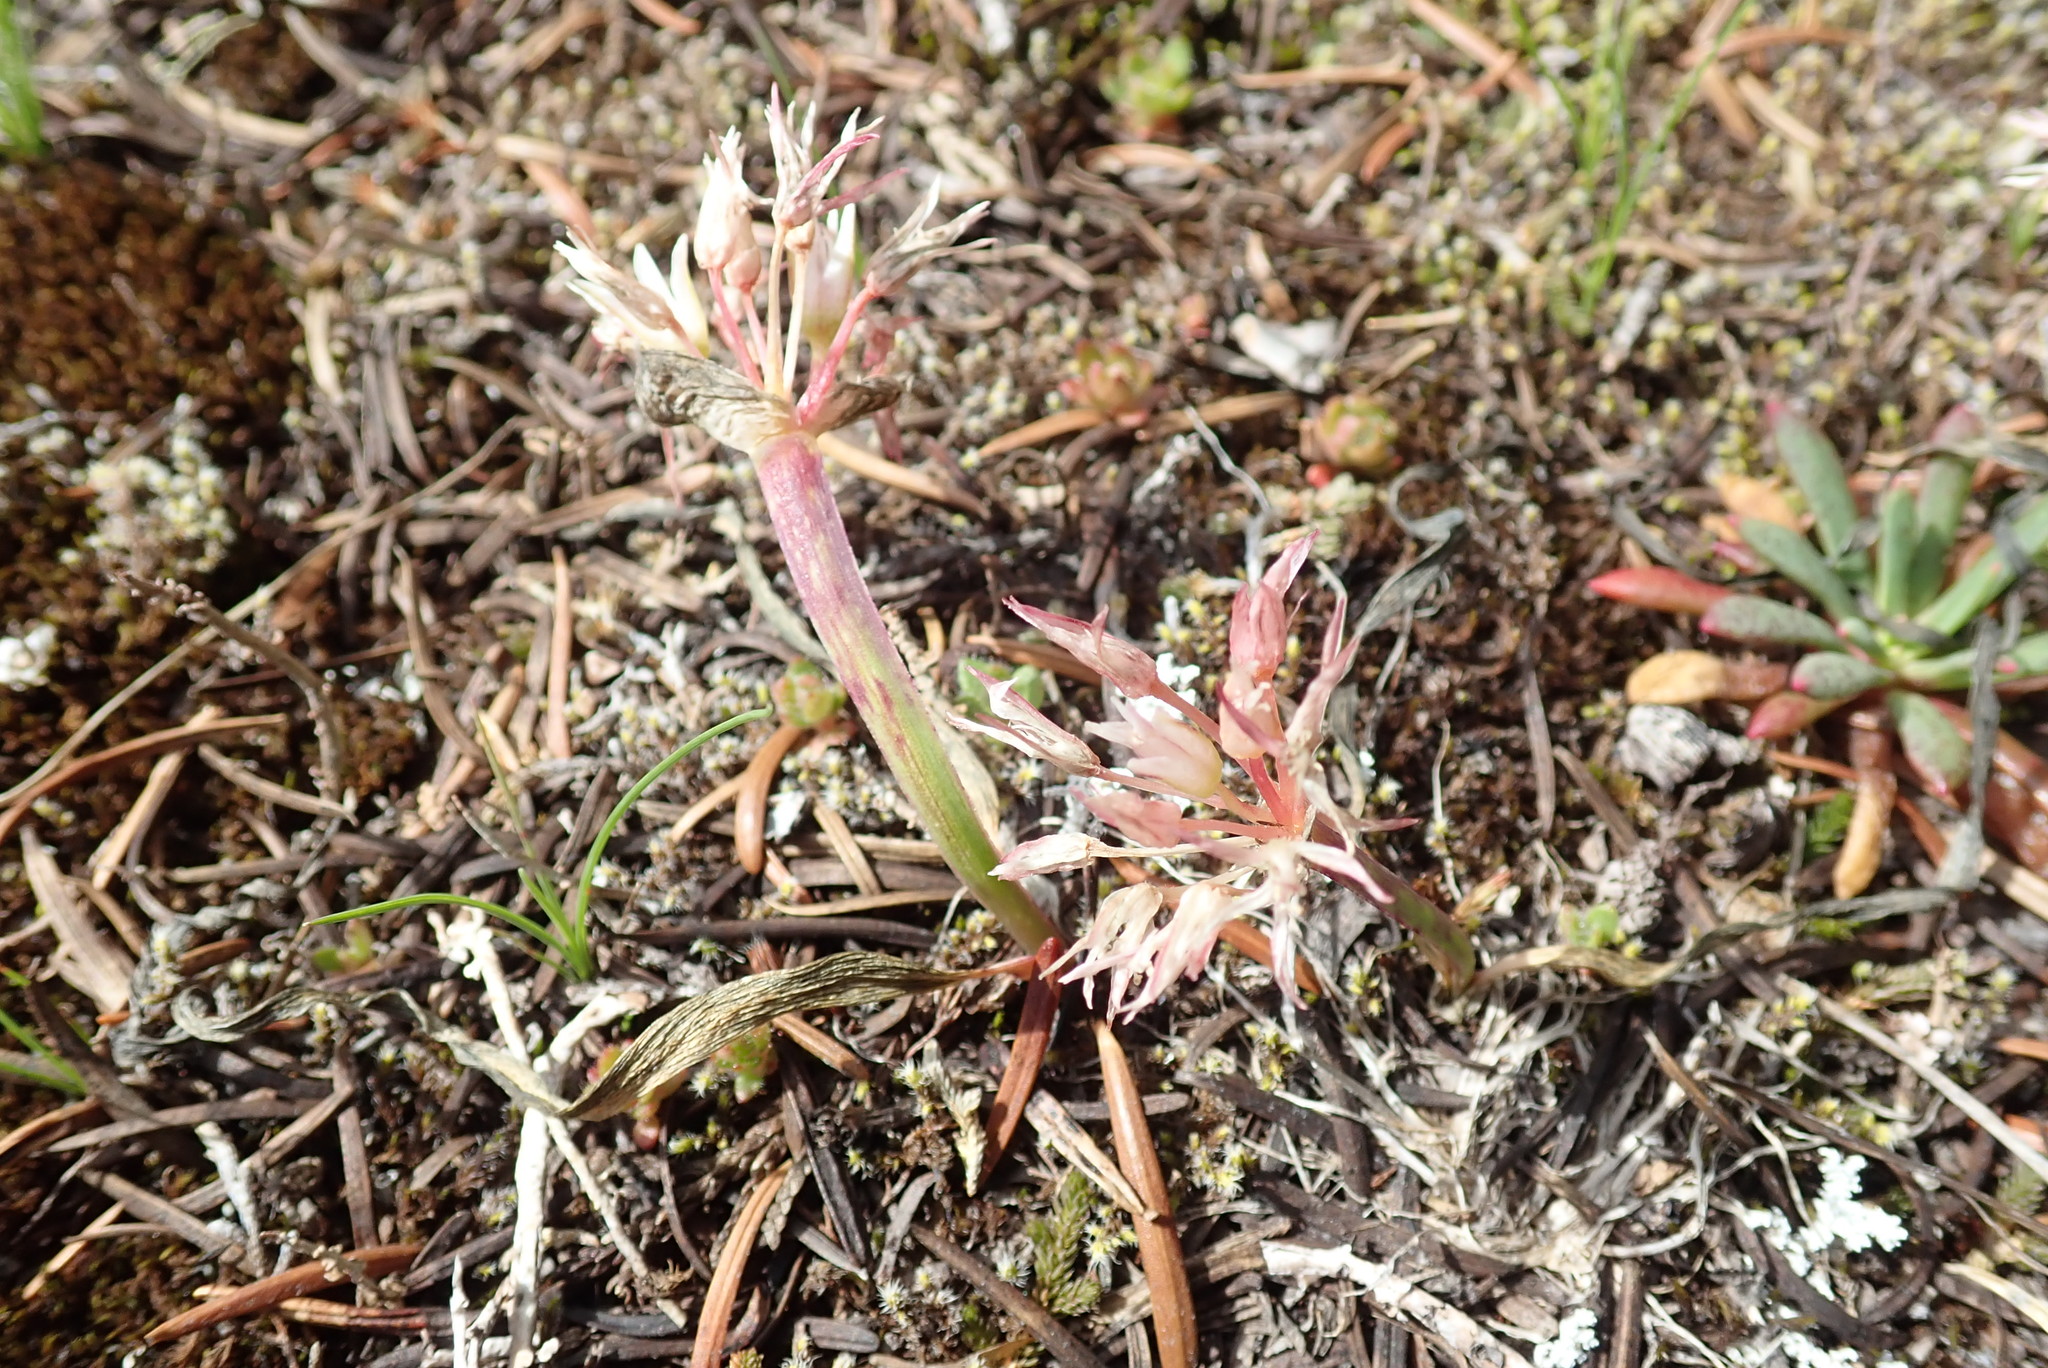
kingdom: Plantae
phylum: Tracheophyta
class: Liliopsida
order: Asparagales
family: Amaryllidaceae
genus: Allium
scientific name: Allium crenulatum
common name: Olympic onion
